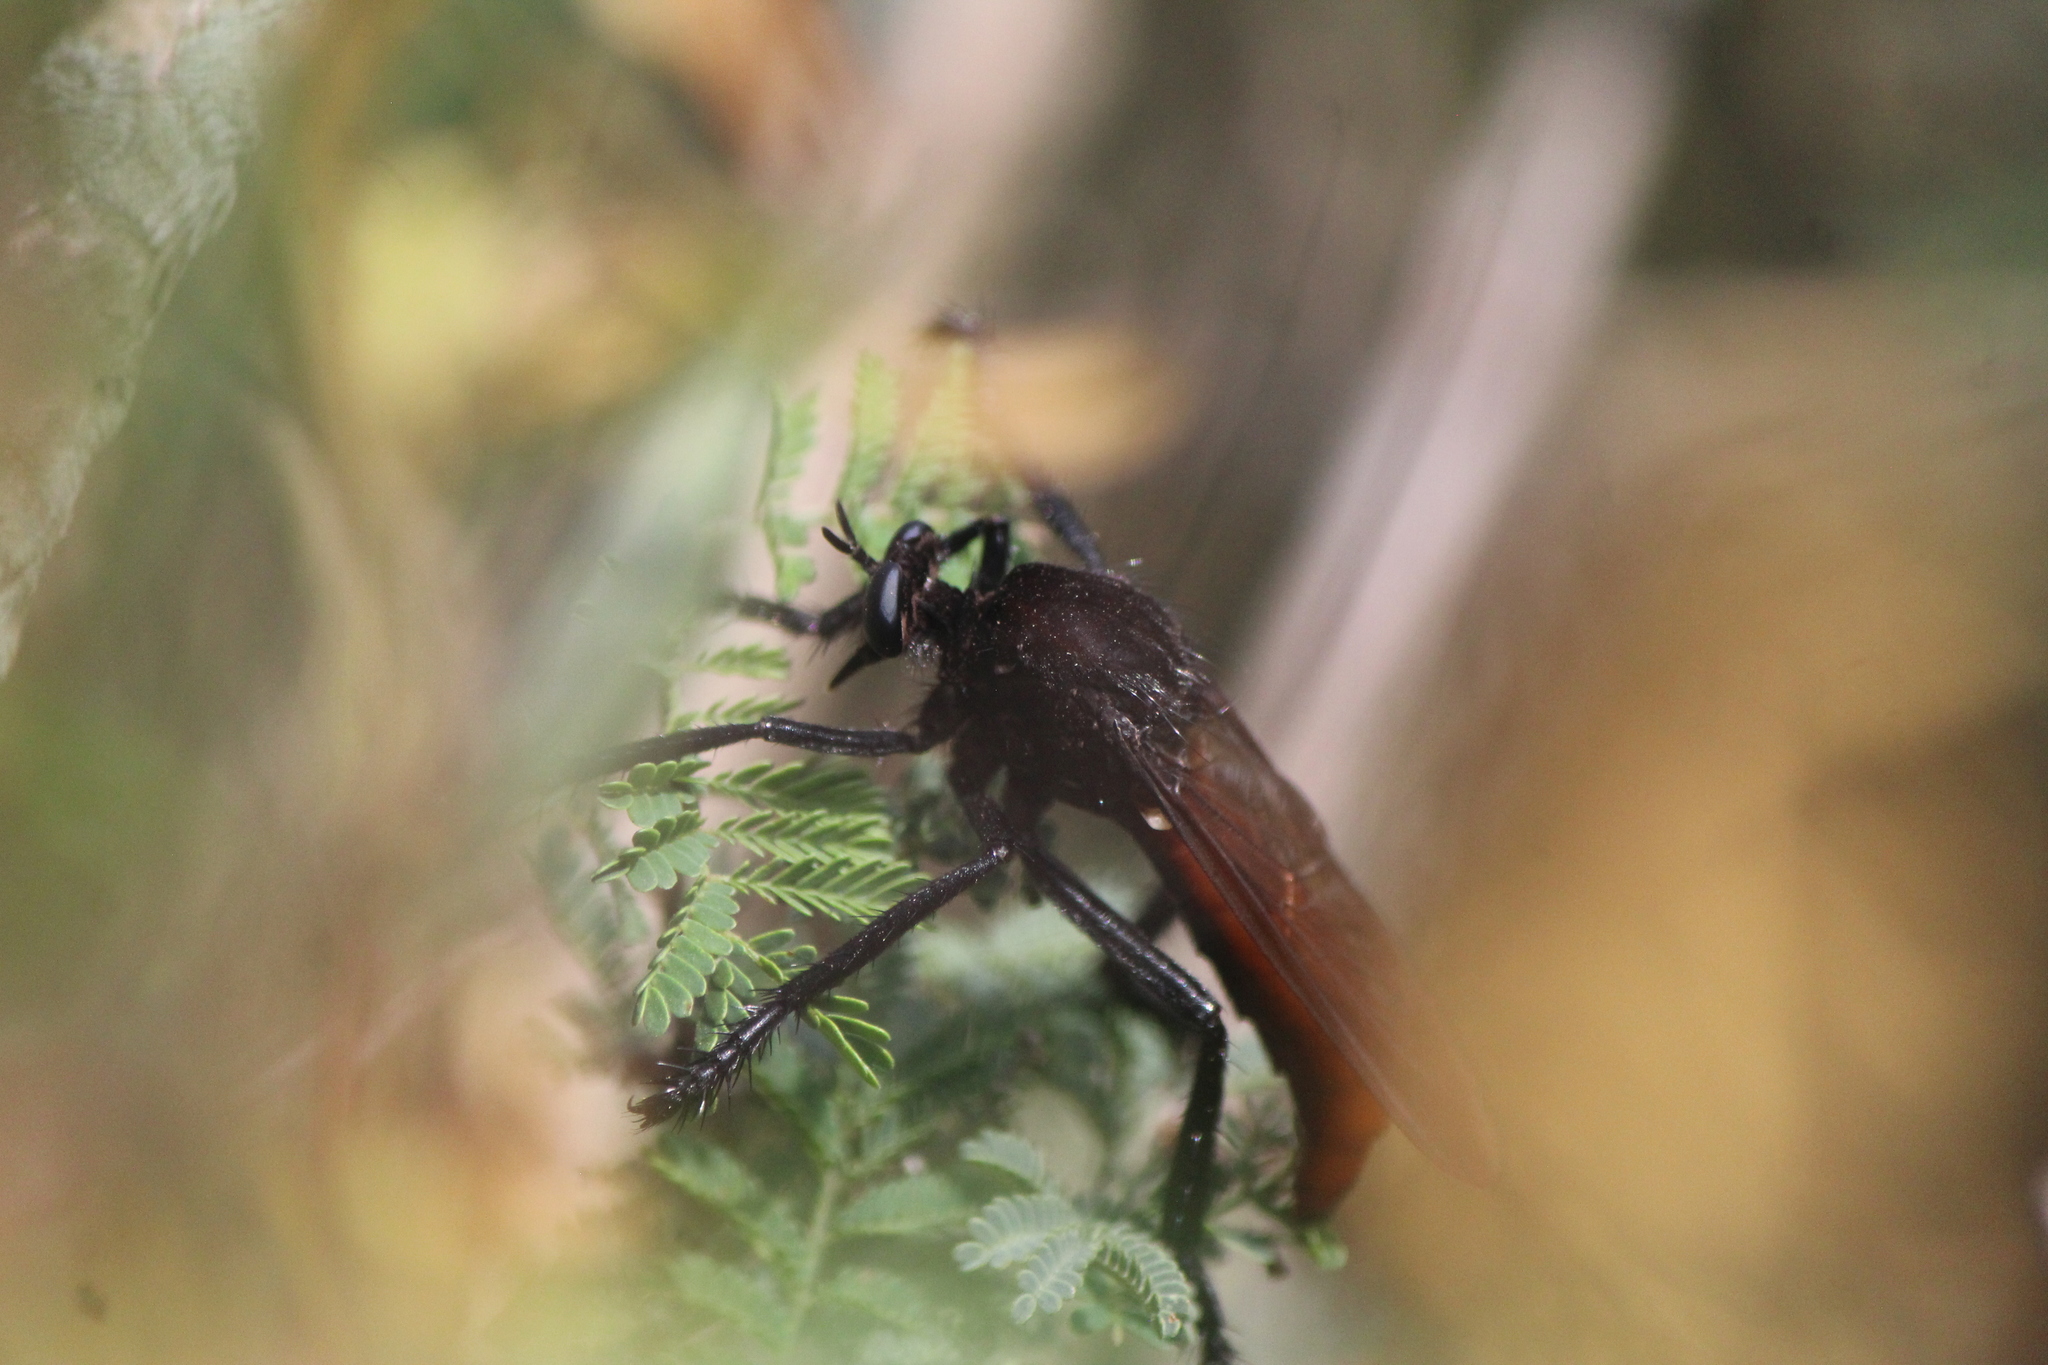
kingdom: Animalia
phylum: Arthropoda
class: Insecta
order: Diptera
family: Asilidae
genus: Archilestris
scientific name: Archilestris magnificus
